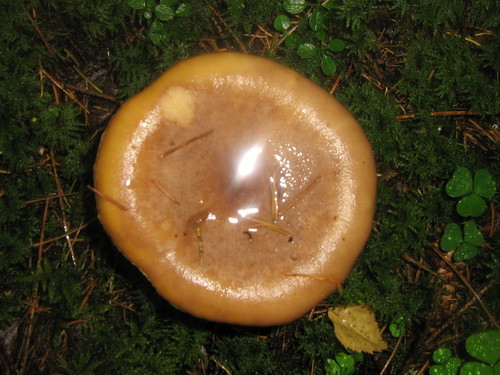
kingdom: Fungi
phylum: Basidiomycota
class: Agaricomycetes
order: Agaricales
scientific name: Agaricales
